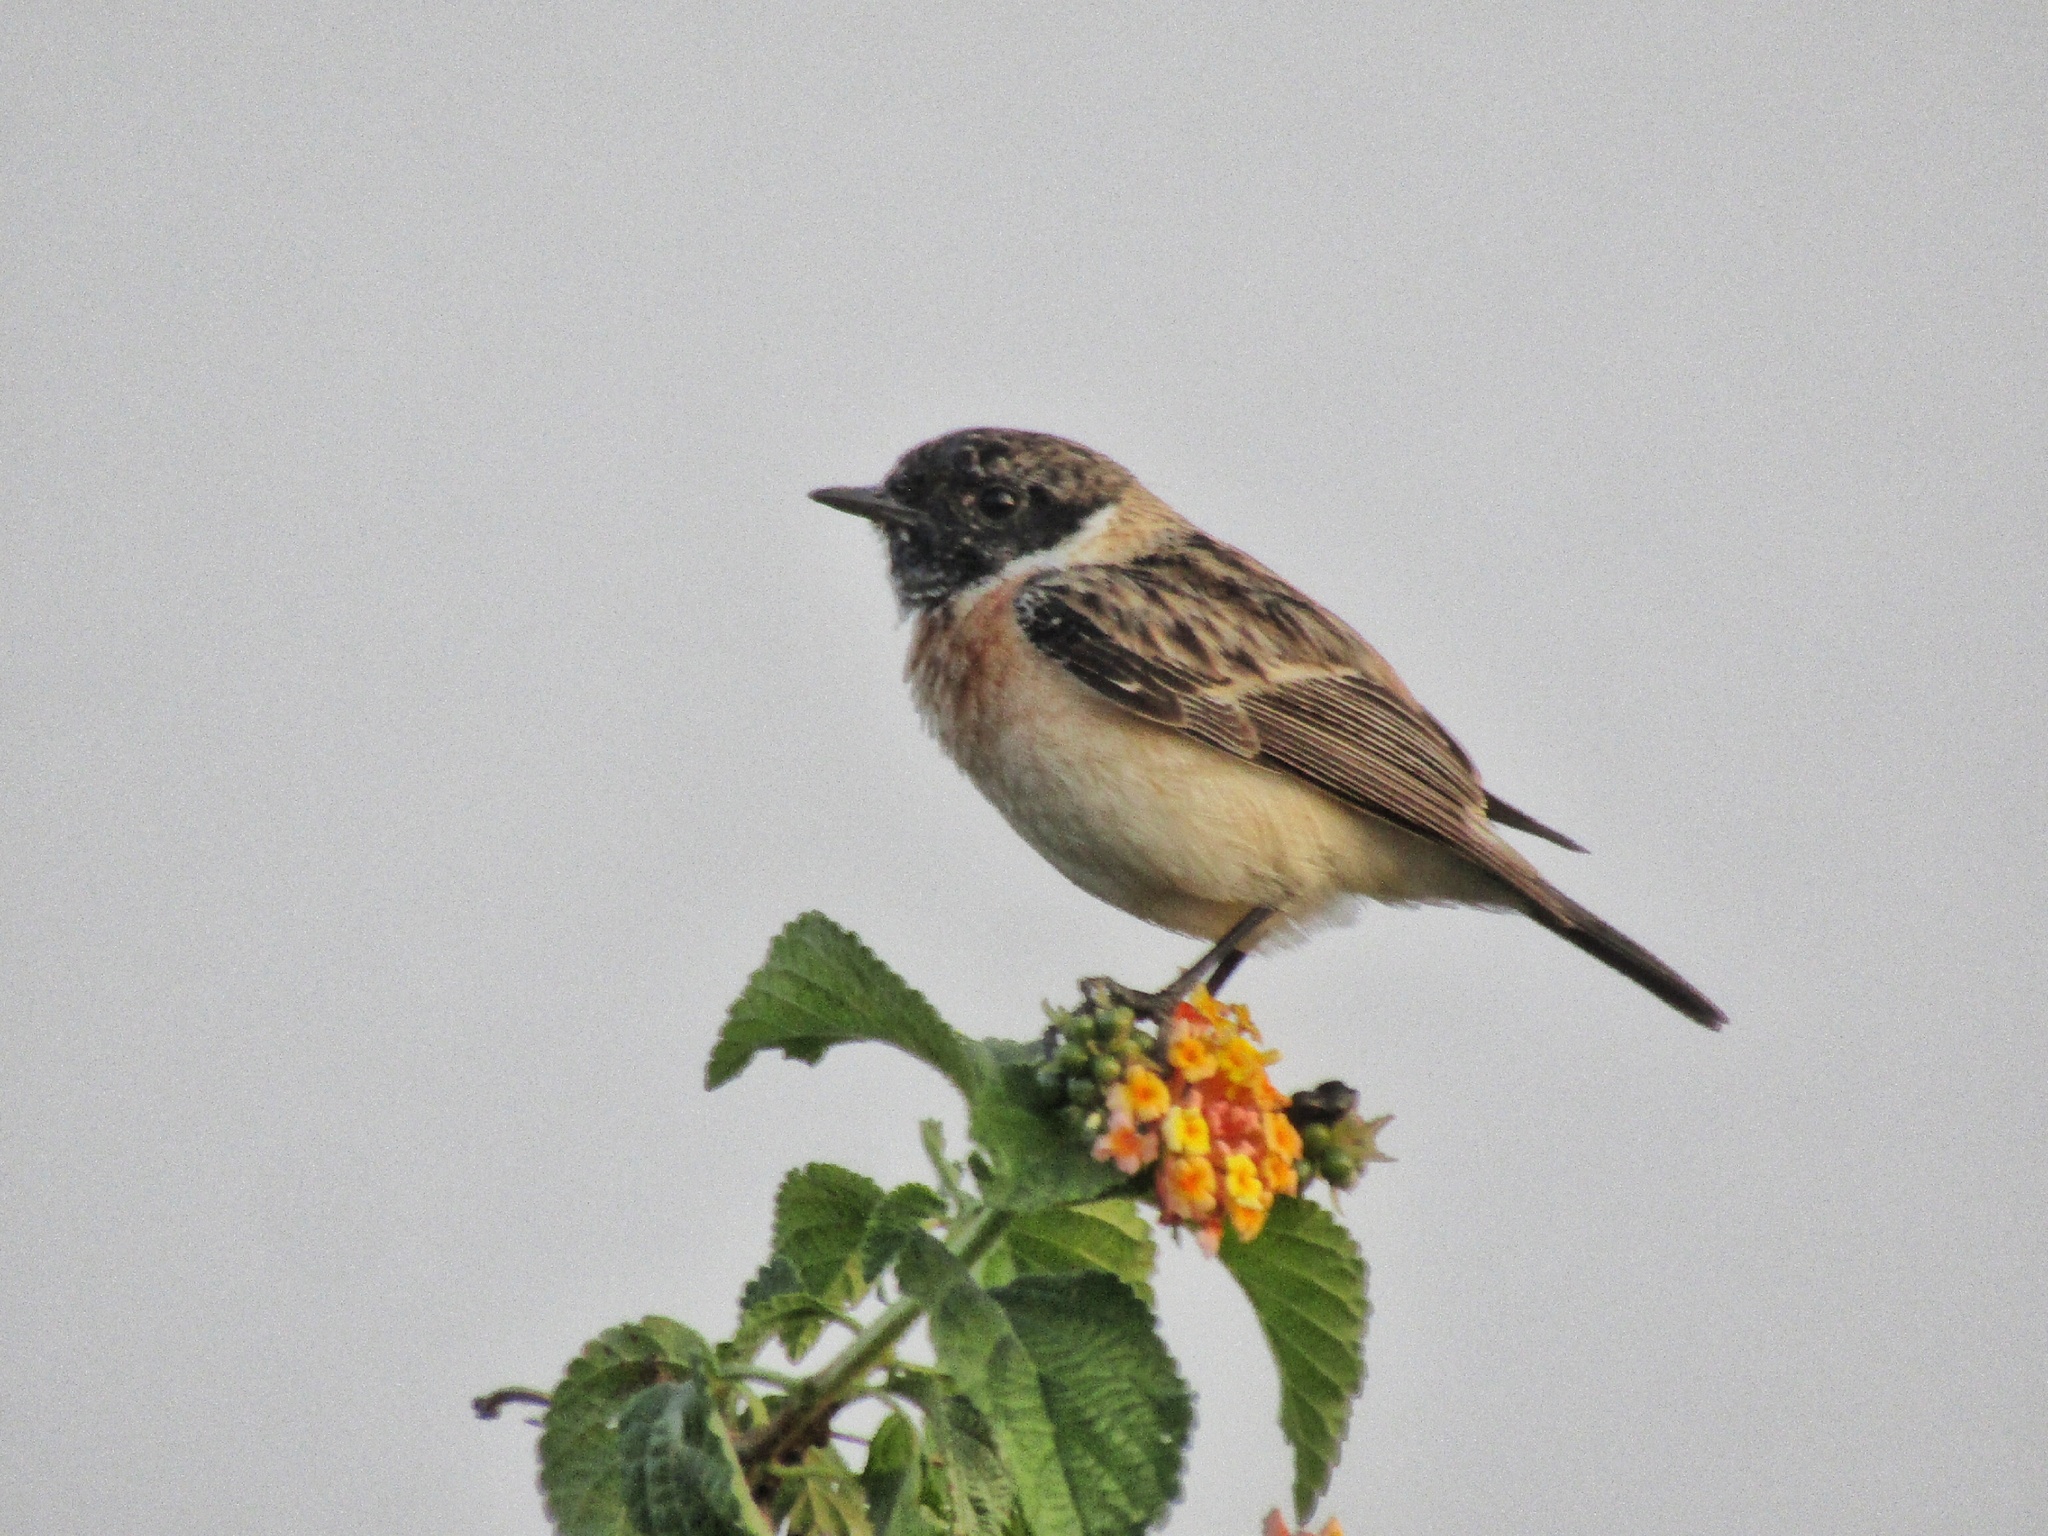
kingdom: Animalia
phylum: Chordata
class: Aves
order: Passeriformes
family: Muscicapidae
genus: Saxicola
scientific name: Saxicola maurus
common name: Siberian stonechat
